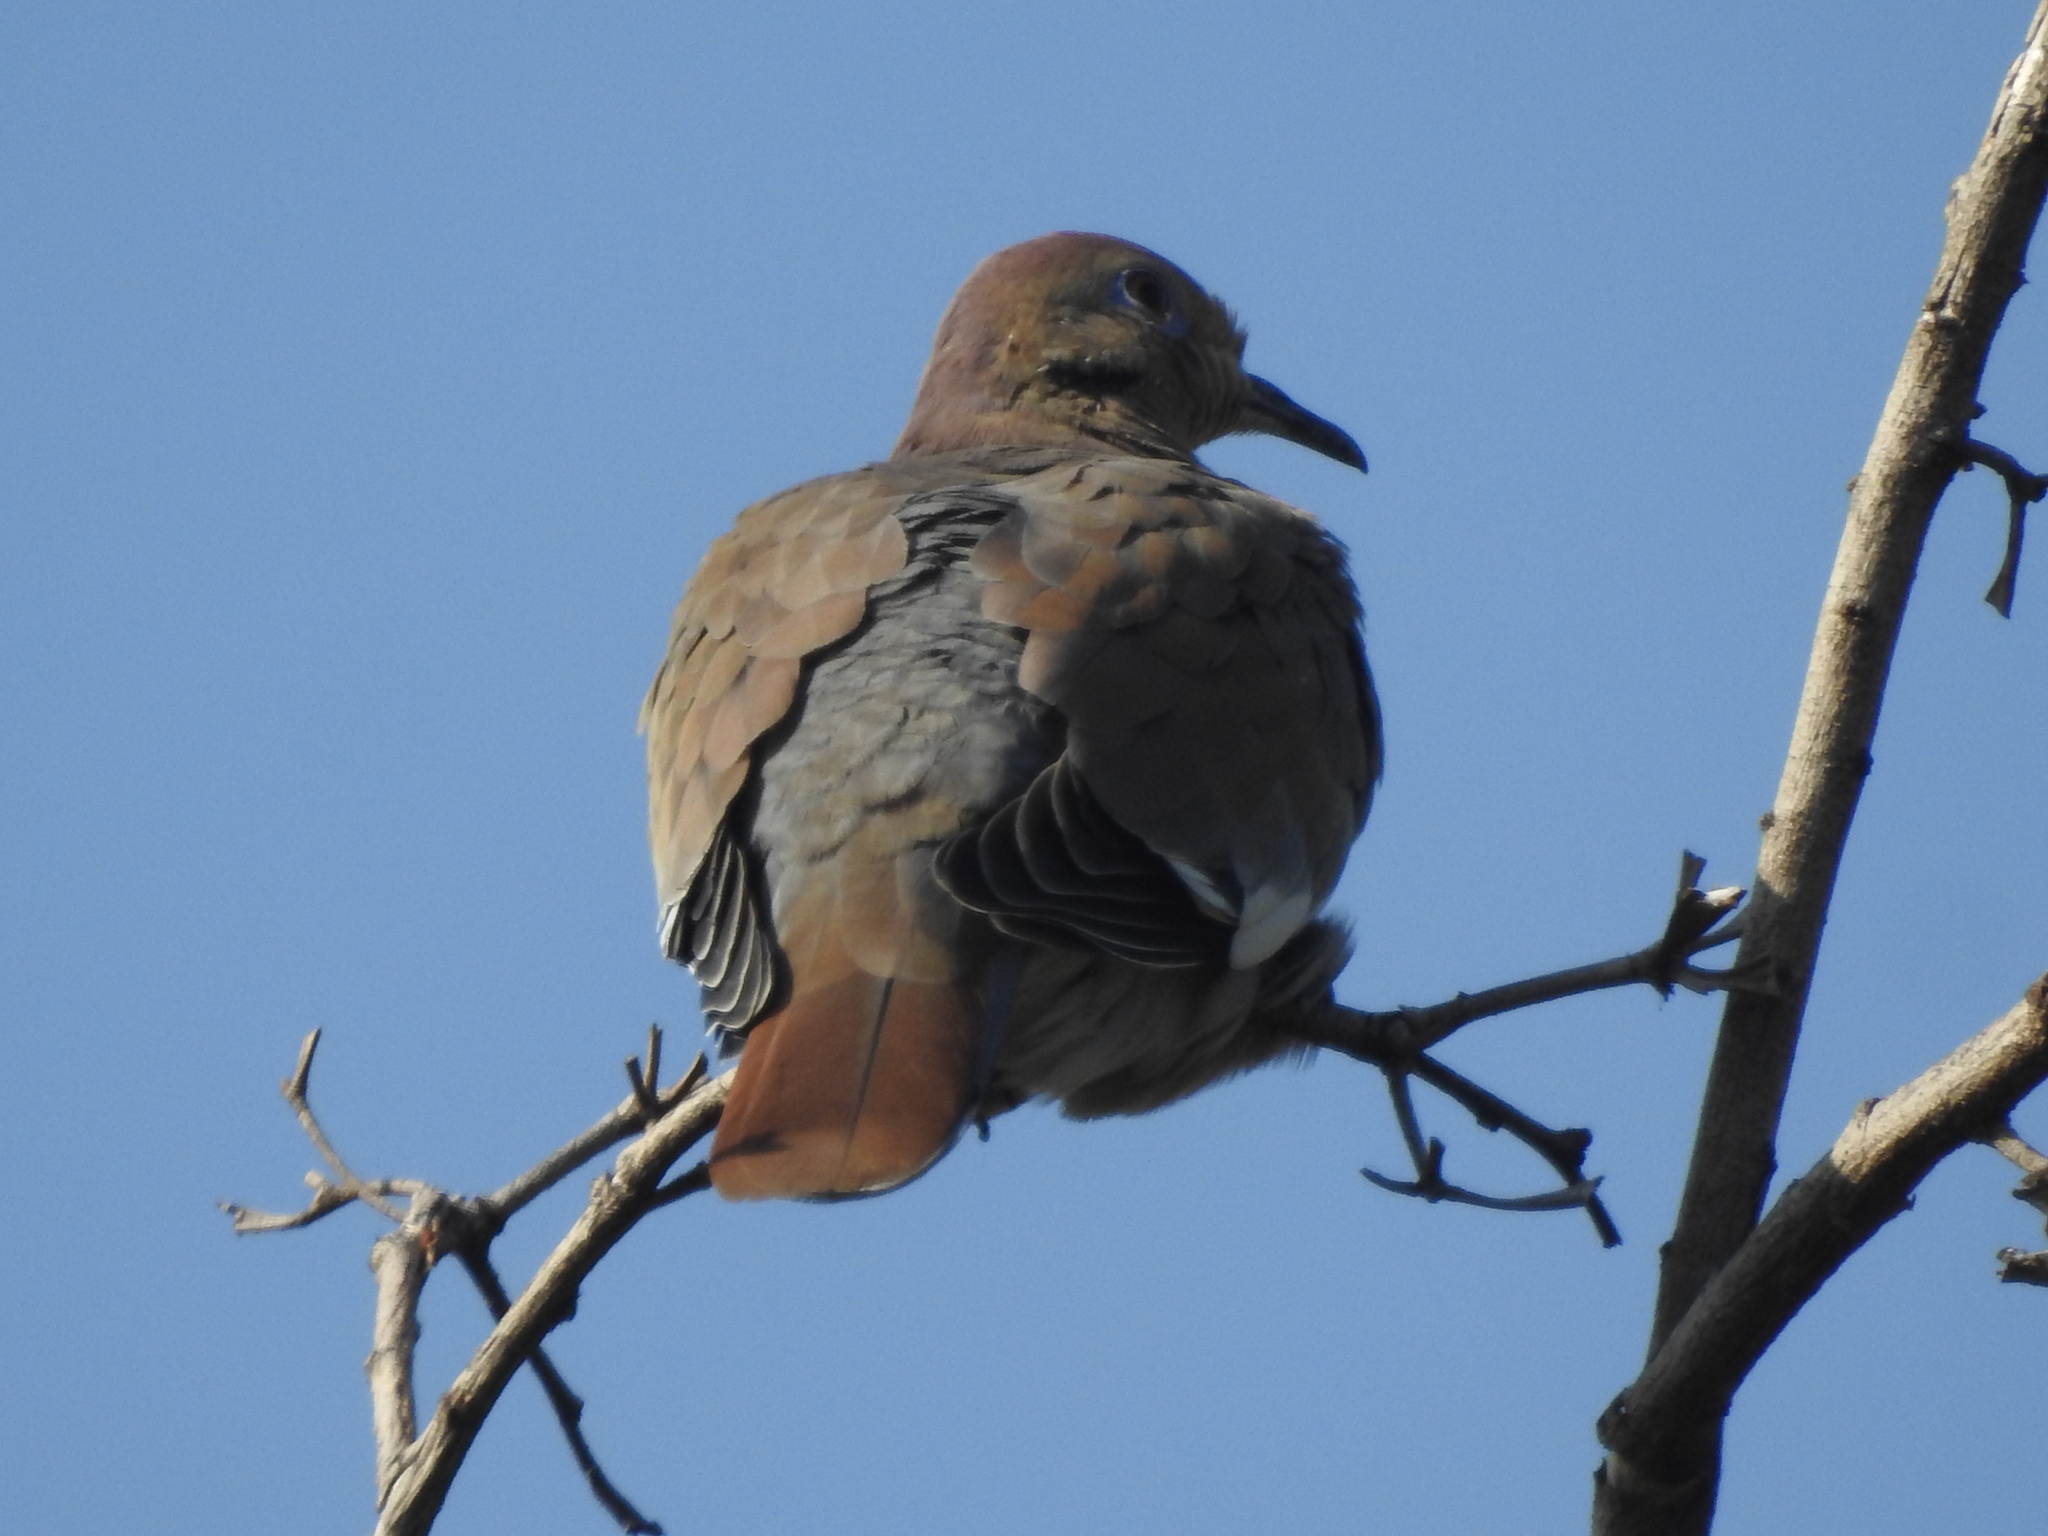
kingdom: Animalia
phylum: Chordata
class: Aves
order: Columbiformes
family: Columbidae
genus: Zenaida
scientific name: Zenaida asiatica
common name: White-winged dove
